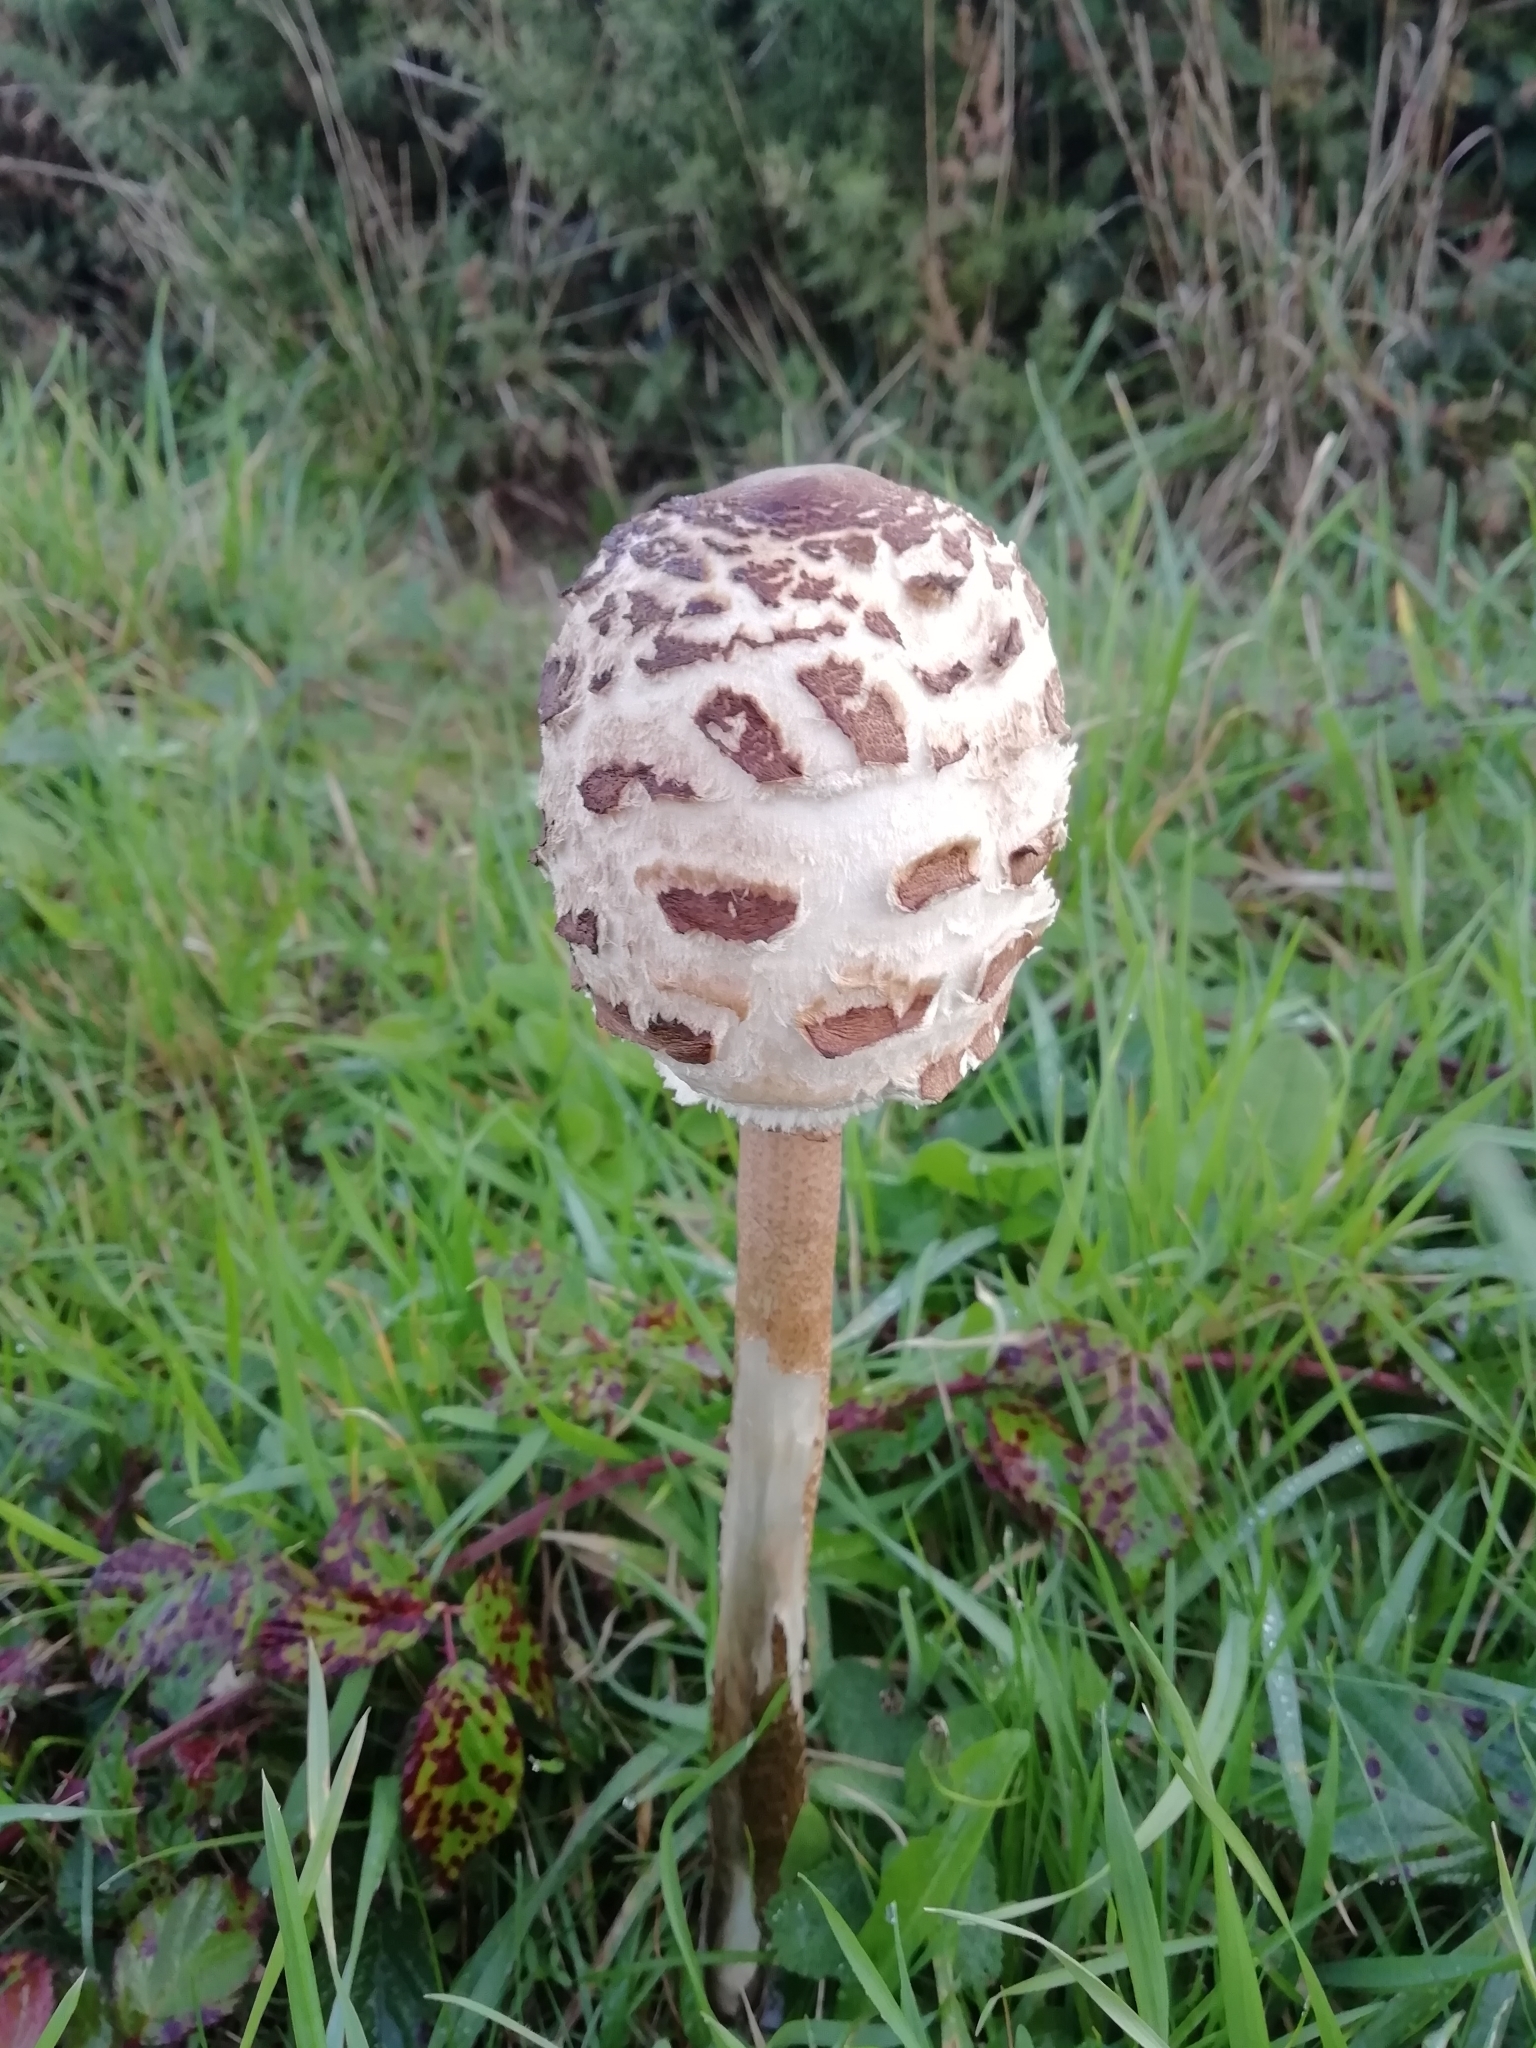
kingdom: Fungi
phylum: Basidiomycota
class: Agaricomycetes
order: Agaricales
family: Agaricaceae
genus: Macrolepiota
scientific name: Macrolepiota procera
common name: Parasol
